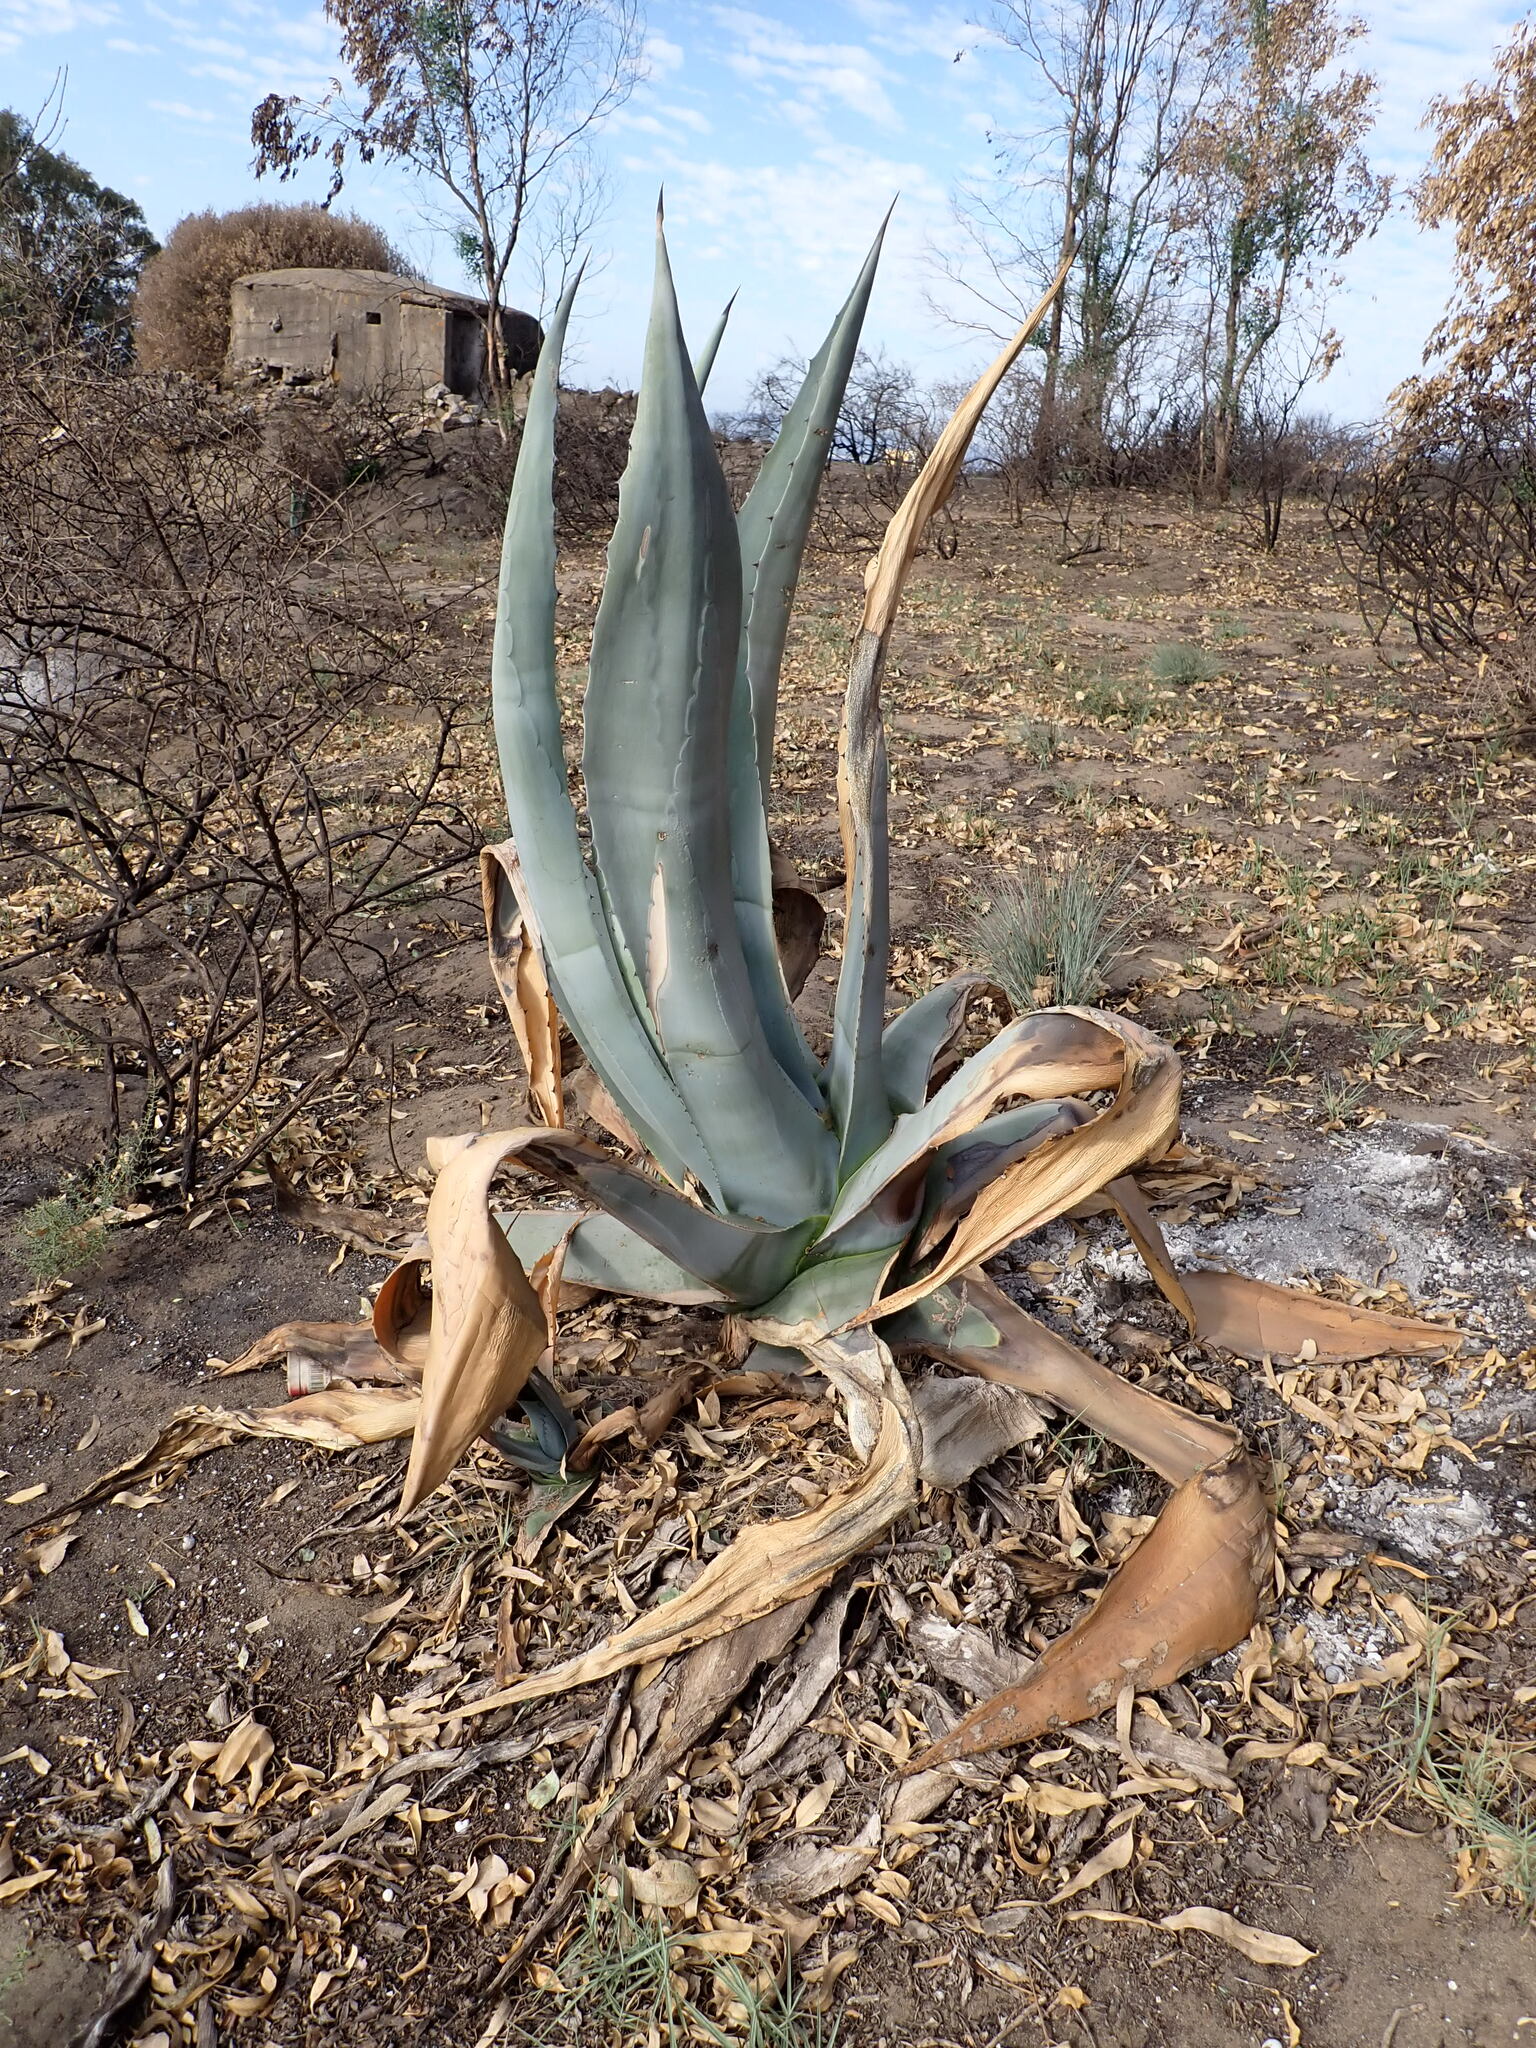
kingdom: Plantae
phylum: Tracheophyta
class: Liliopsida
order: Asparagales
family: Asparagaceae
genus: Agave
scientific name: Agave americana
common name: Centuryplant
